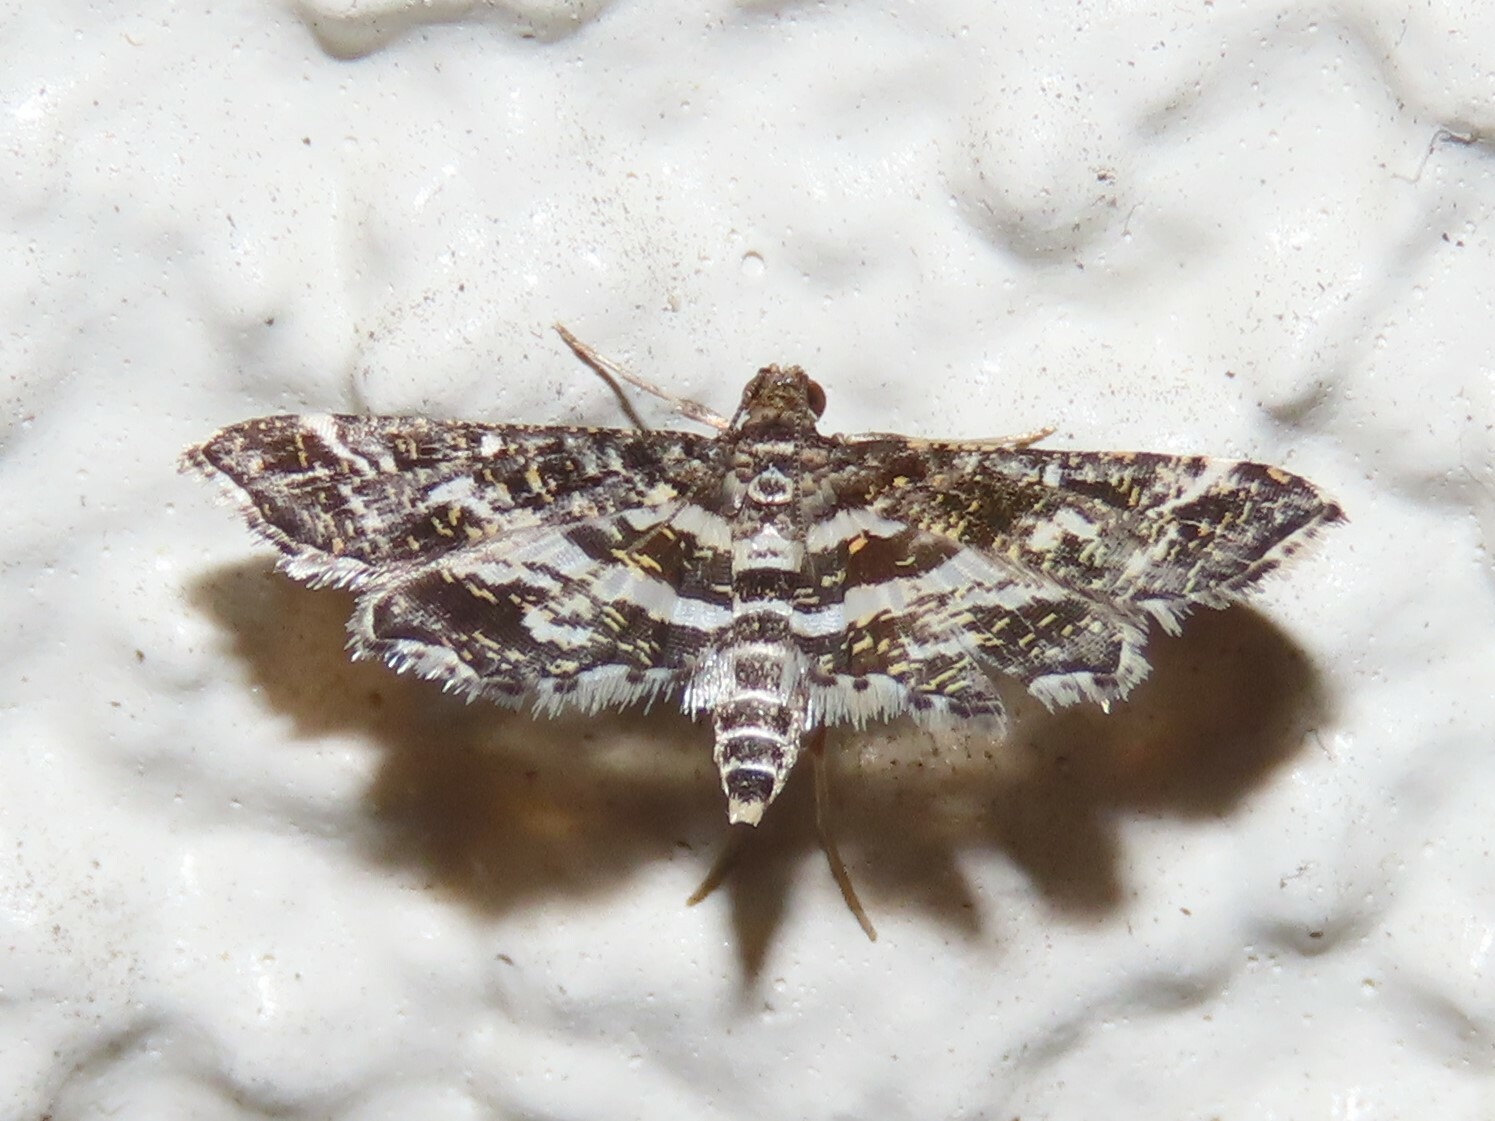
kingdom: Animalia
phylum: Arthropoda
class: Insecta
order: Lepidoptera
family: Crambidae
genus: Diasemiopsis
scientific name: Diasemiopsis ramburialis
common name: Vagrant china-mark
